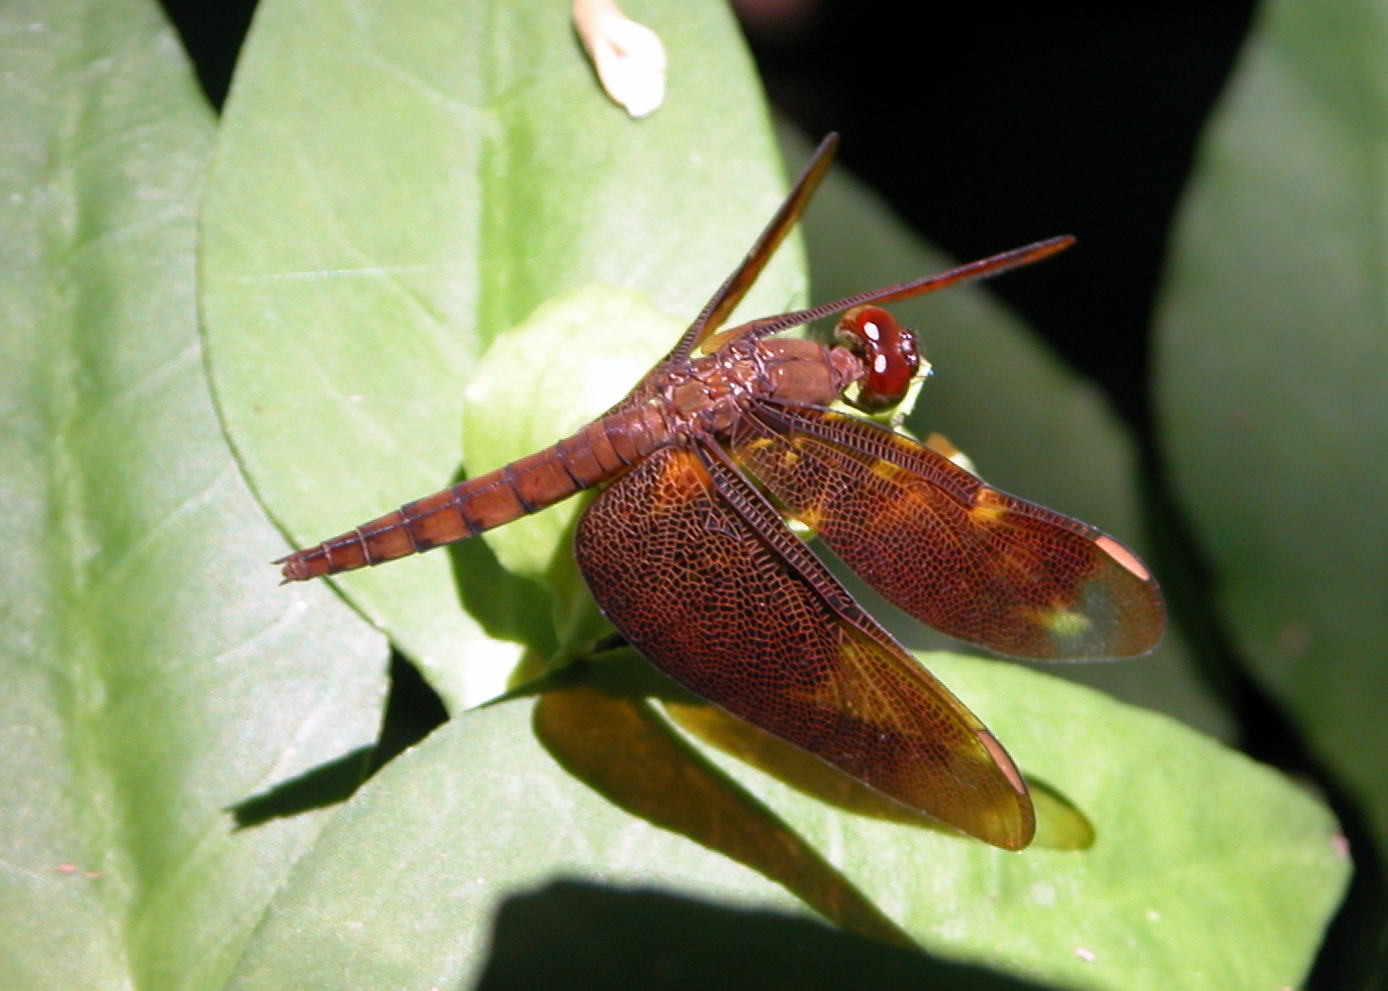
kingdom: Animalia
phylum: Arthropoda
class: Insecta
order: Odonata
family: Libellulidae
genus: Neurothemis
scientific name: Neurothemis fulvia
